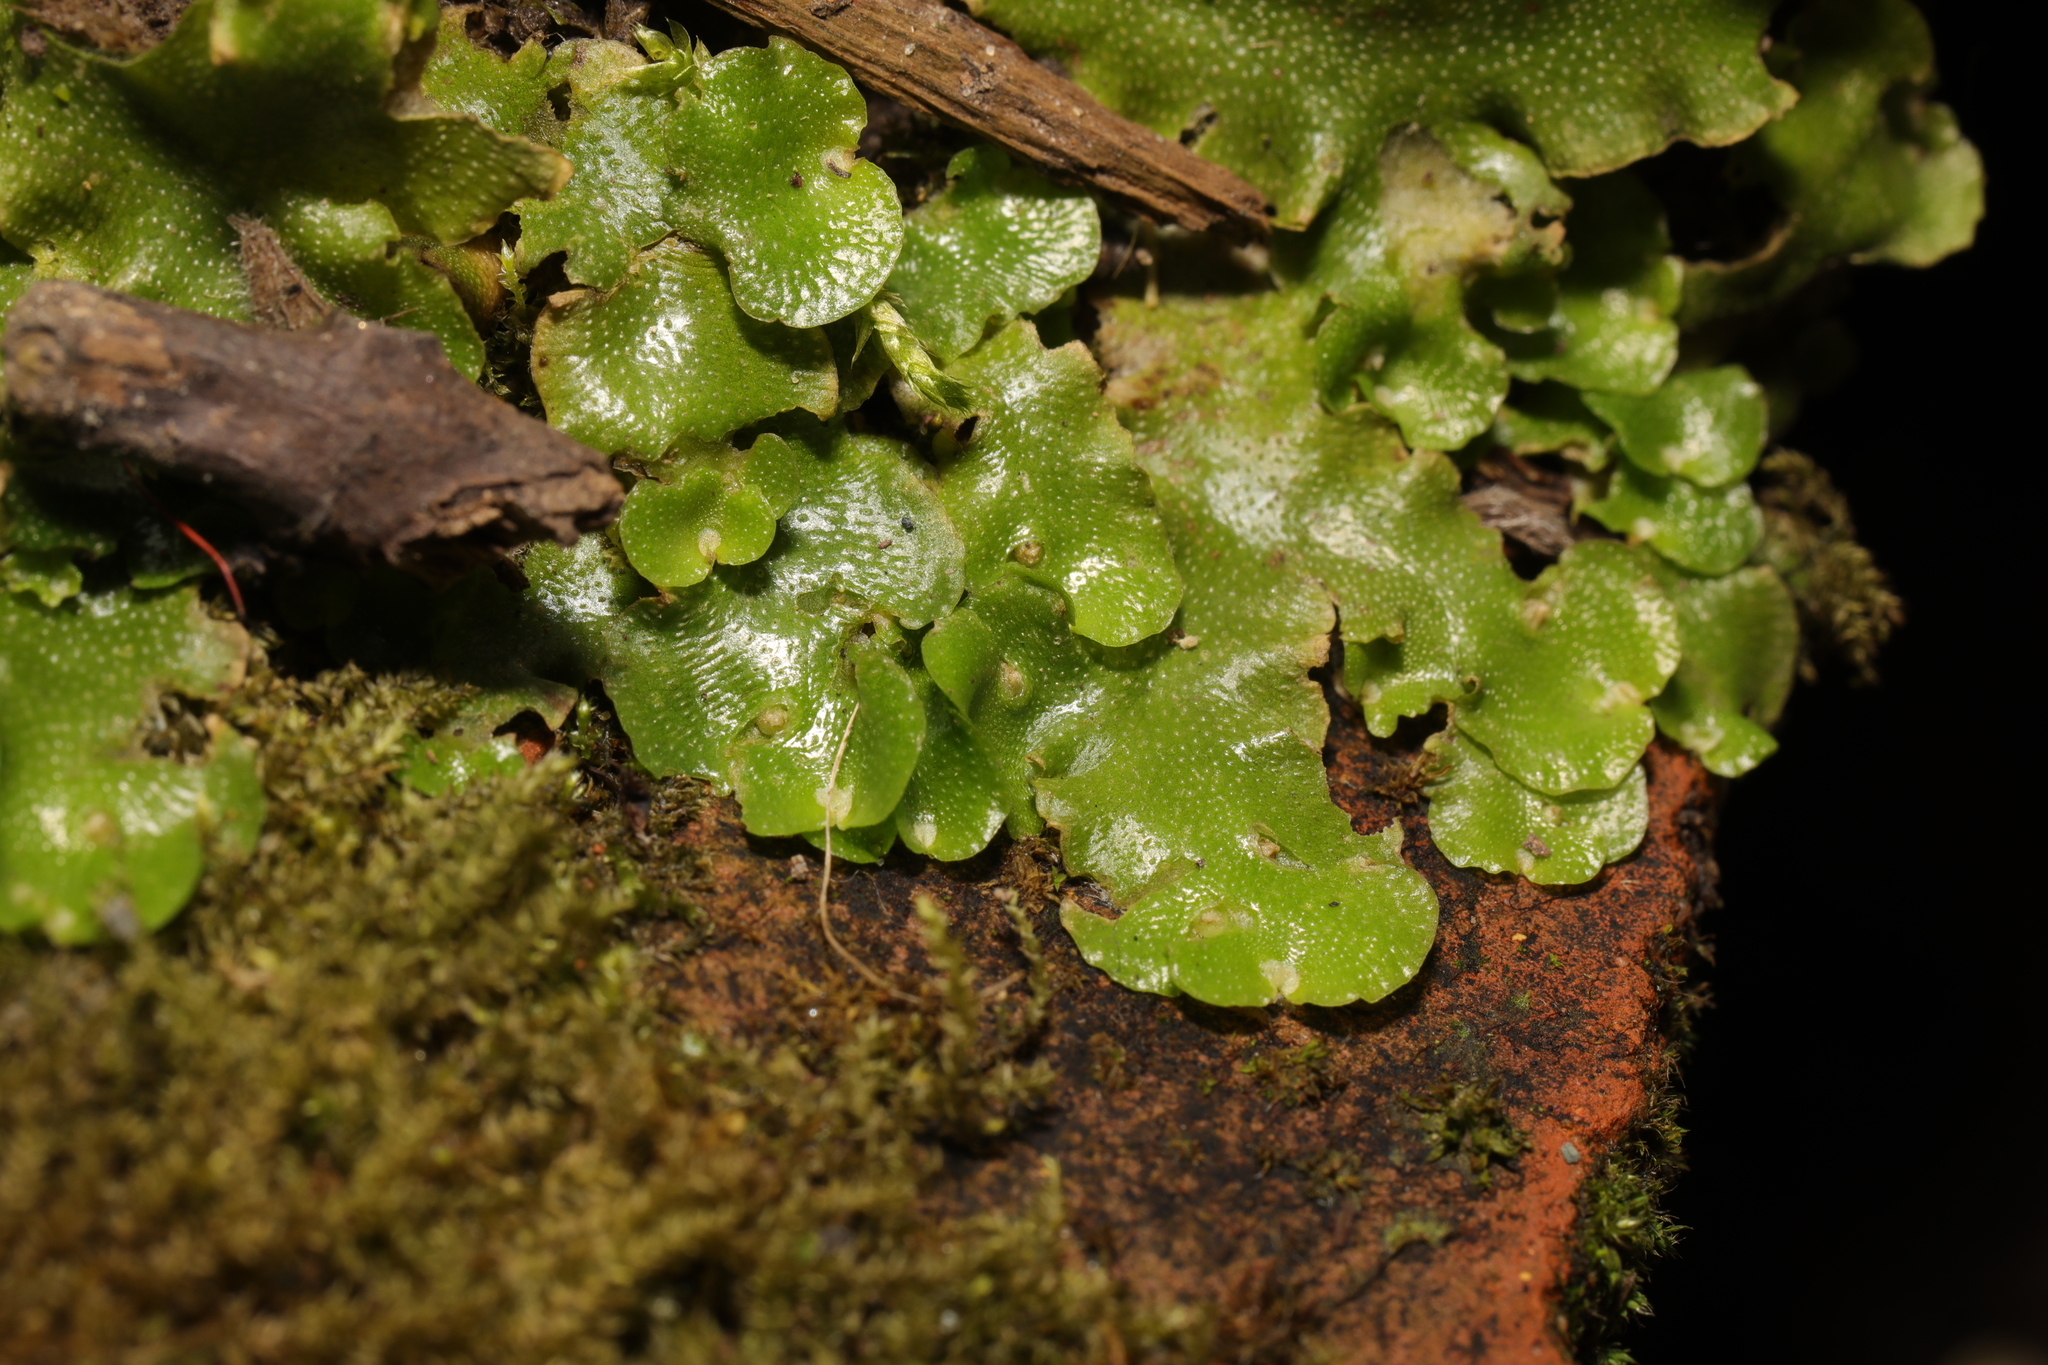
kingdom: Plantae
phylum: Marchantiophyta
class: Marchantiopsida
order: Lunulariales
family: Lunulariaceae
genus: Lunularia
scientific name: Lunularia cruciata
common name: Crescent-cup liverwort
